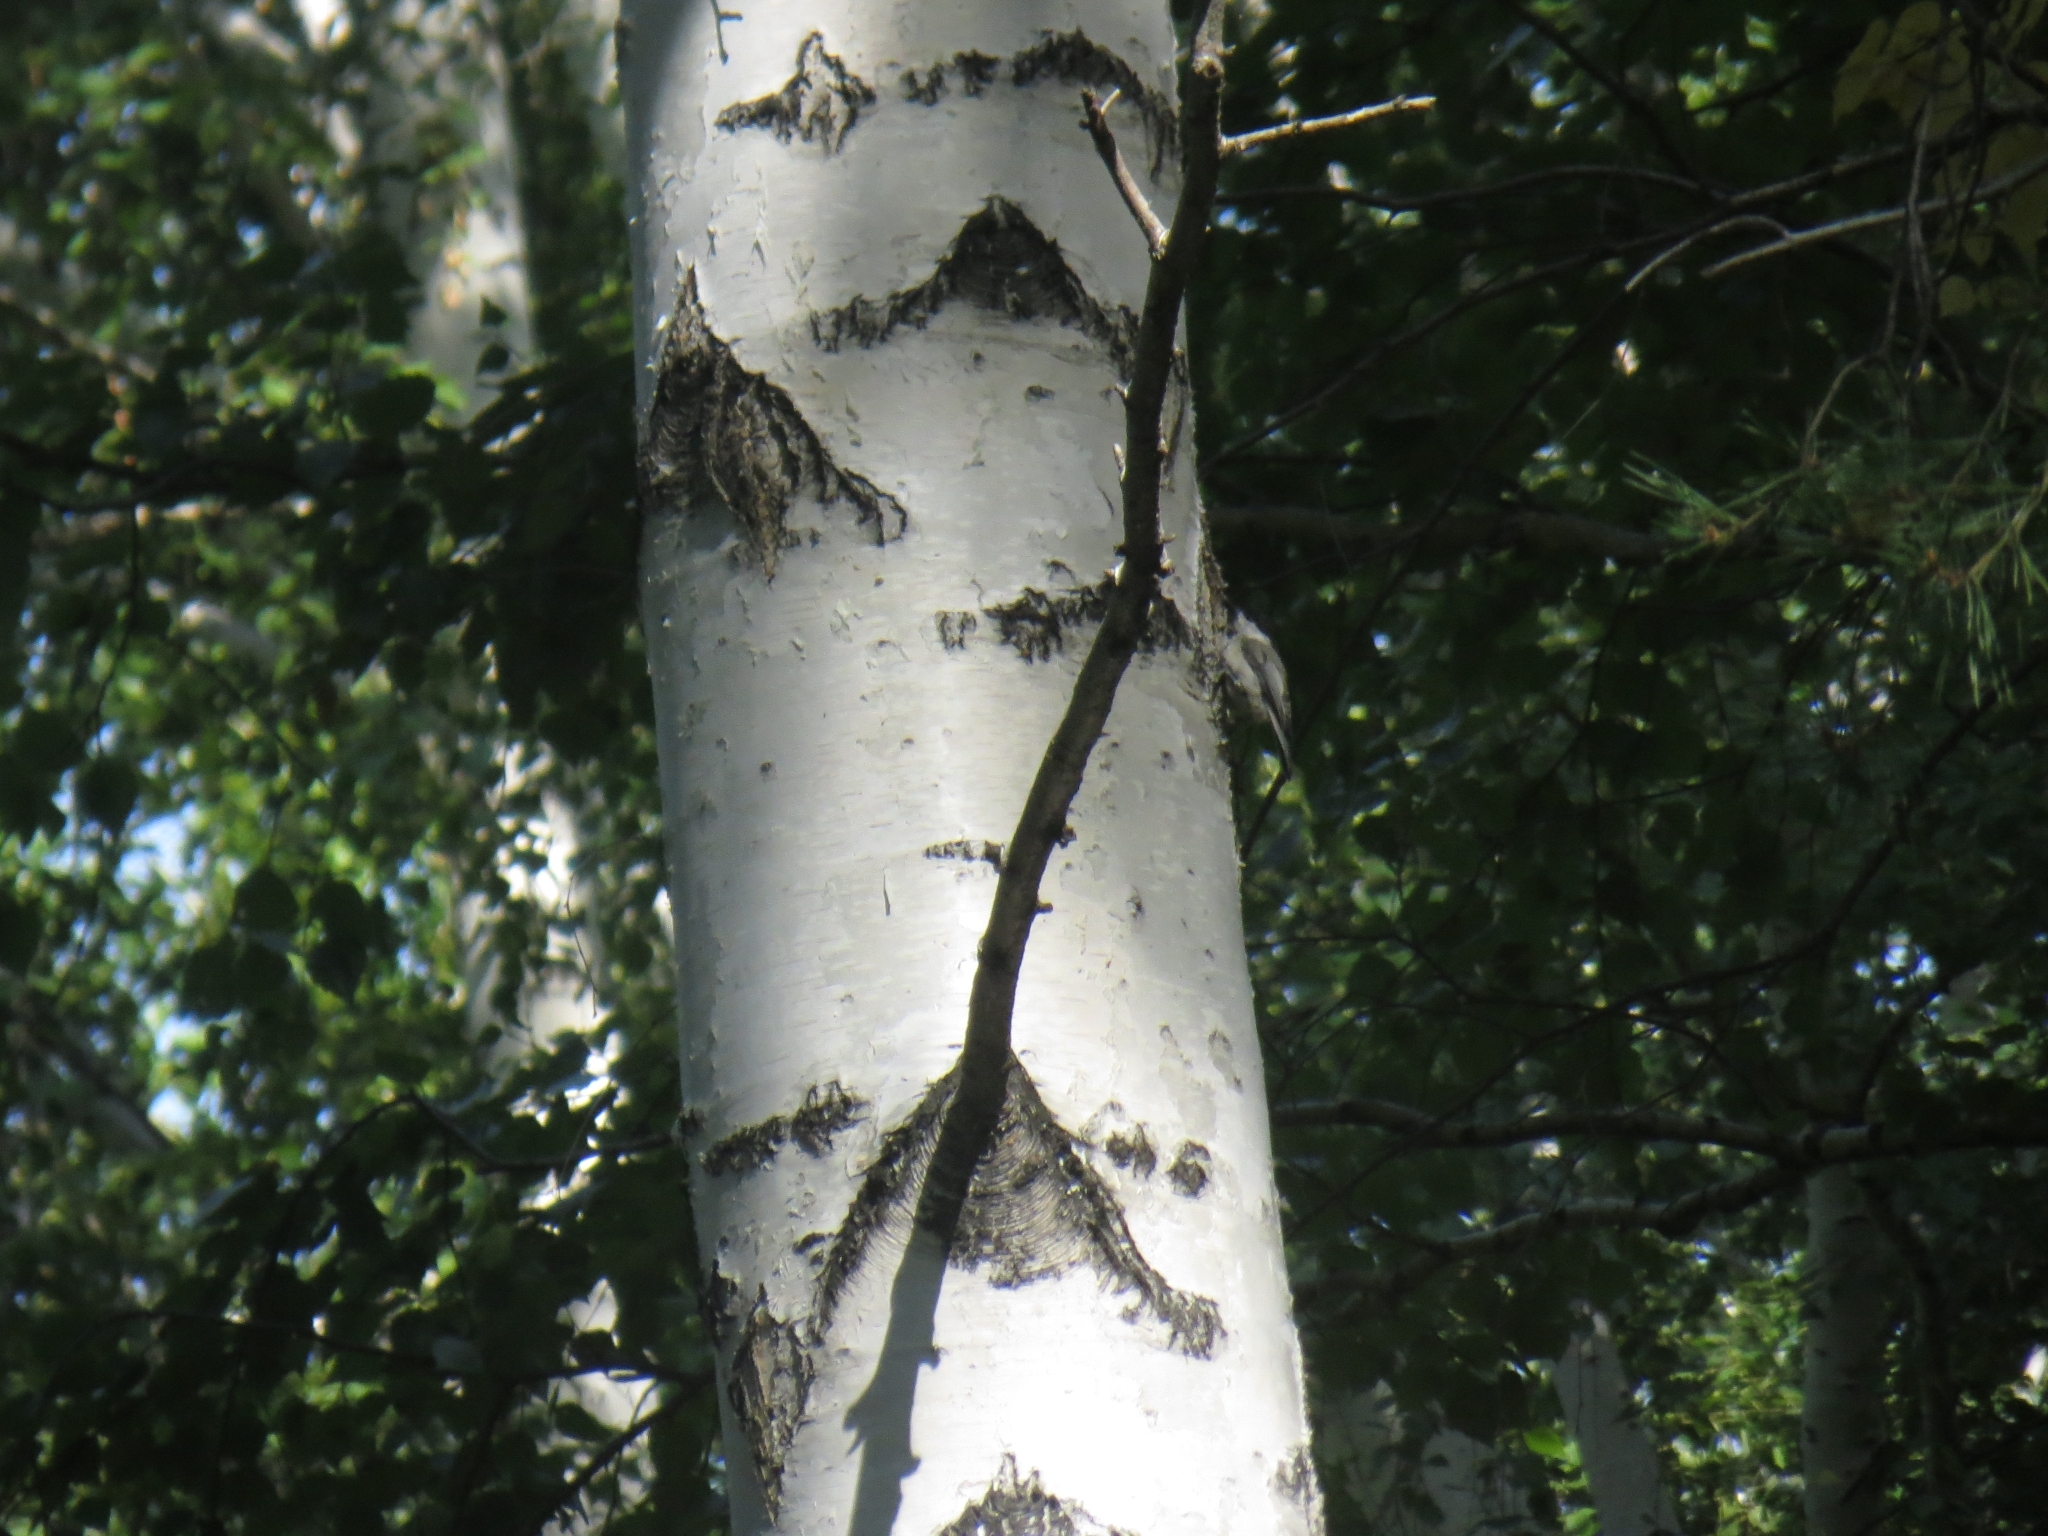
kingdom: Animalia
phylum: Chordata
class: Aves
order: Passeriformes
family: Paridae
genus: Poecile
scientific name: Poecile montanus
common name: Willow tit
